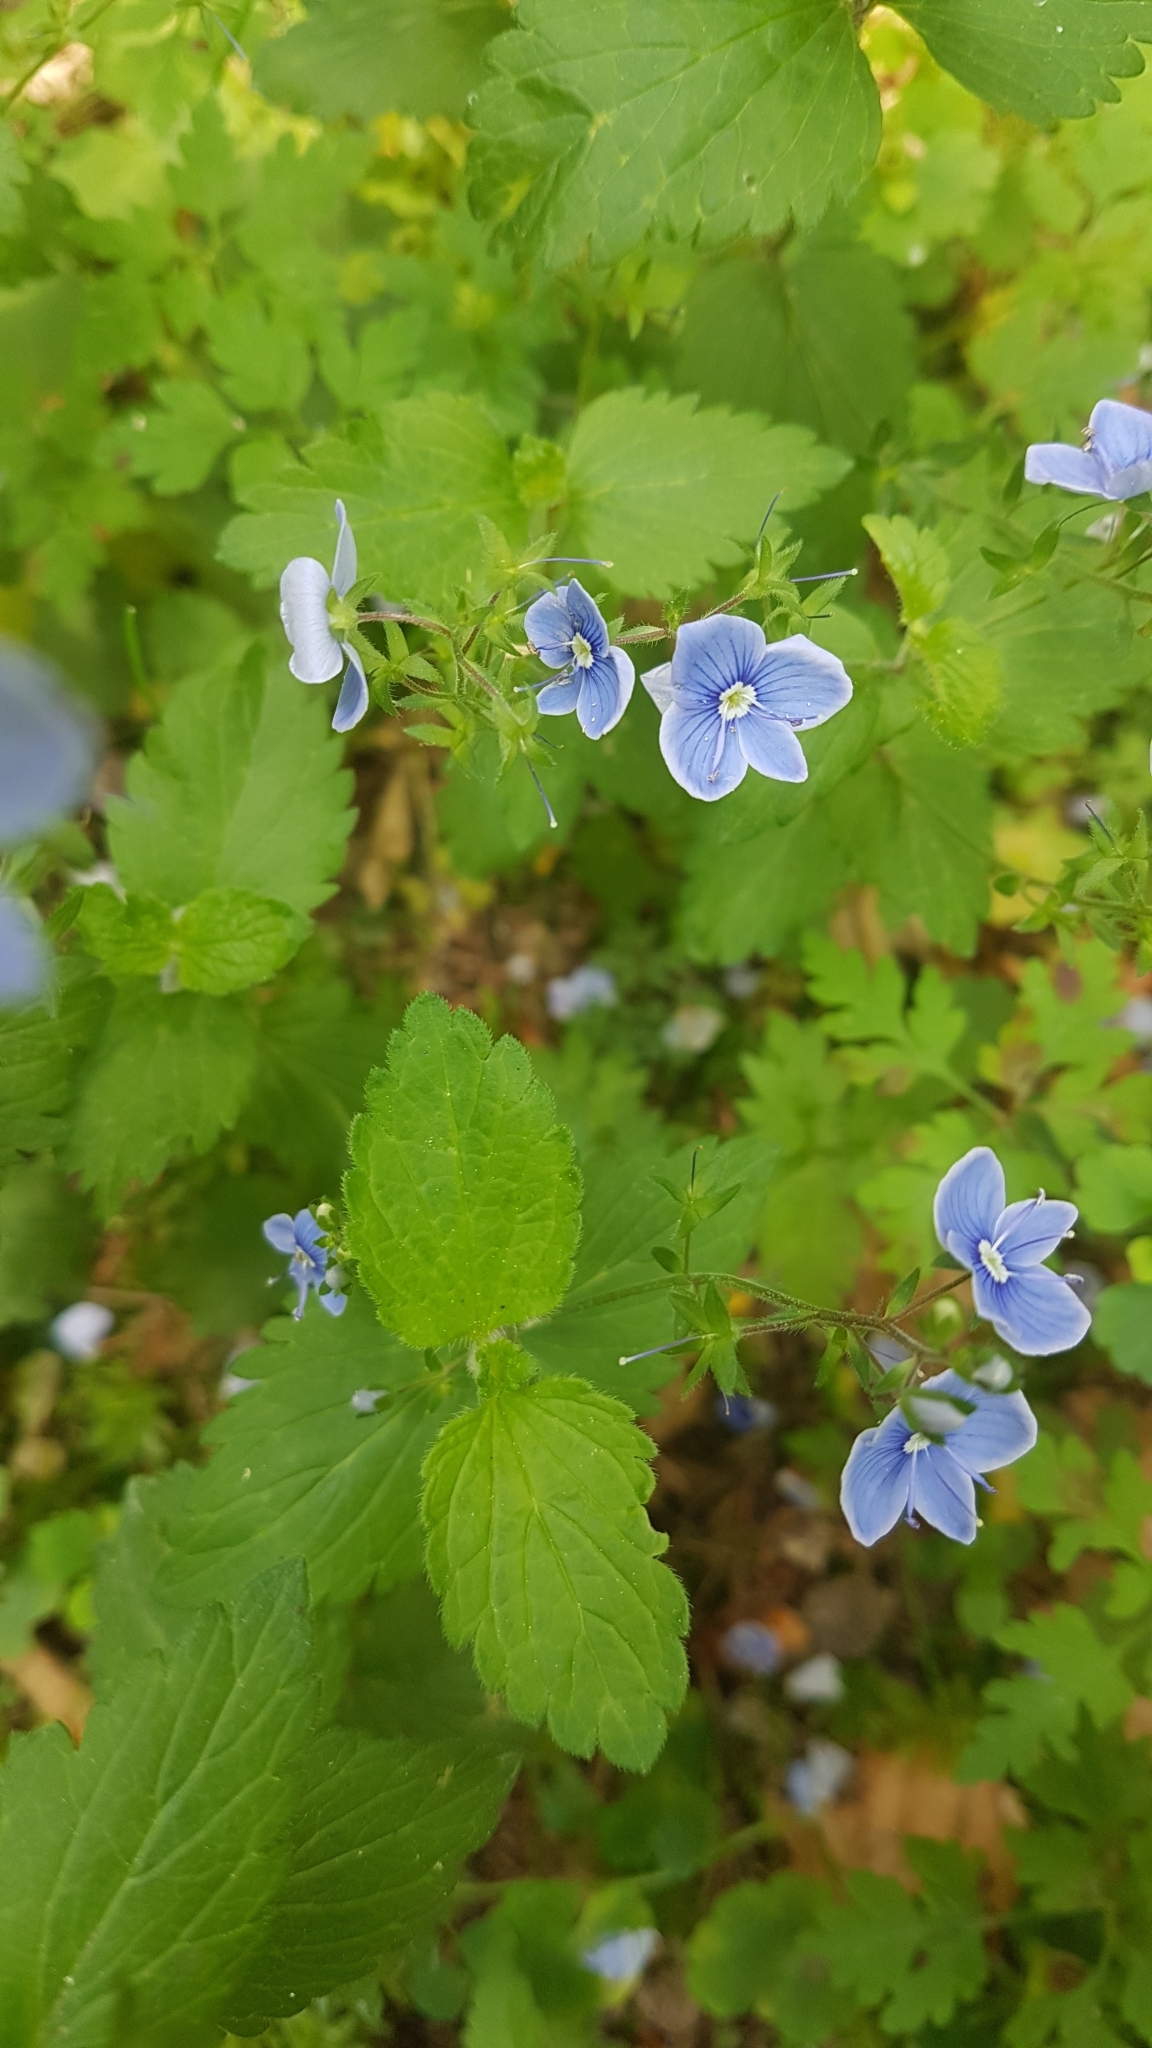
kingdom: Plantae
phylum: Tracheophyta
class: Magnoliopsida
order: Lamiales
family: Plantaginaceae
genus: Veronica
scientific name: Veronica chamaedrys
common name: Germander speedwell
